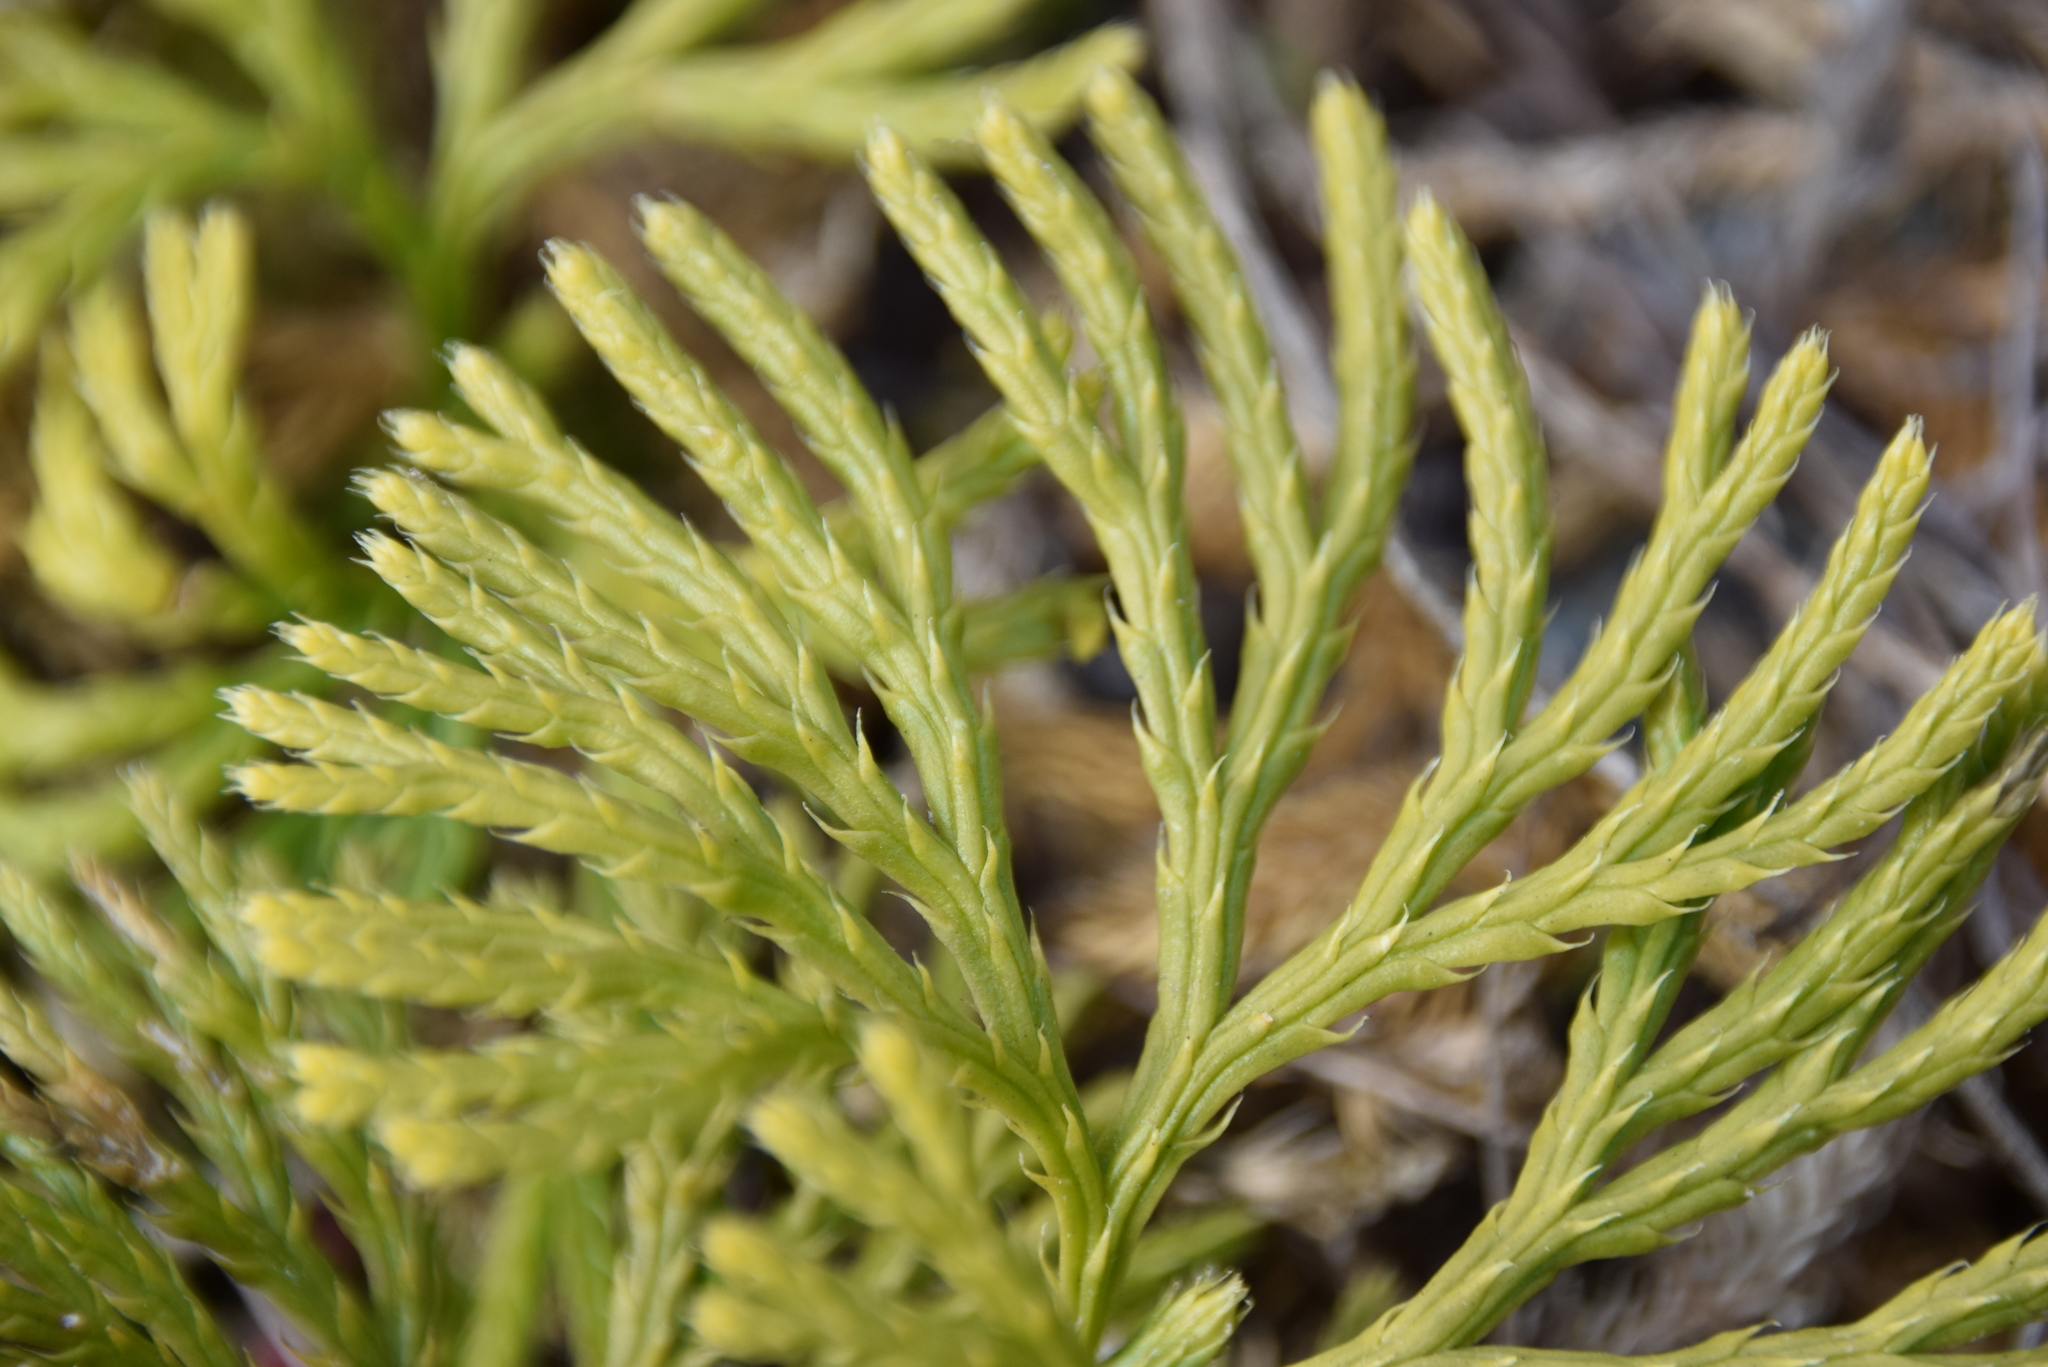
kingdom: Plantae
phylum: Tracheophyta
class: Lycopodiopsida
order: Lycopodiales
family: Lycopodiaceae
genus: Diphasiastrum
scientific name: Diphasiastrum digitatum
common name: Southern running-pine
